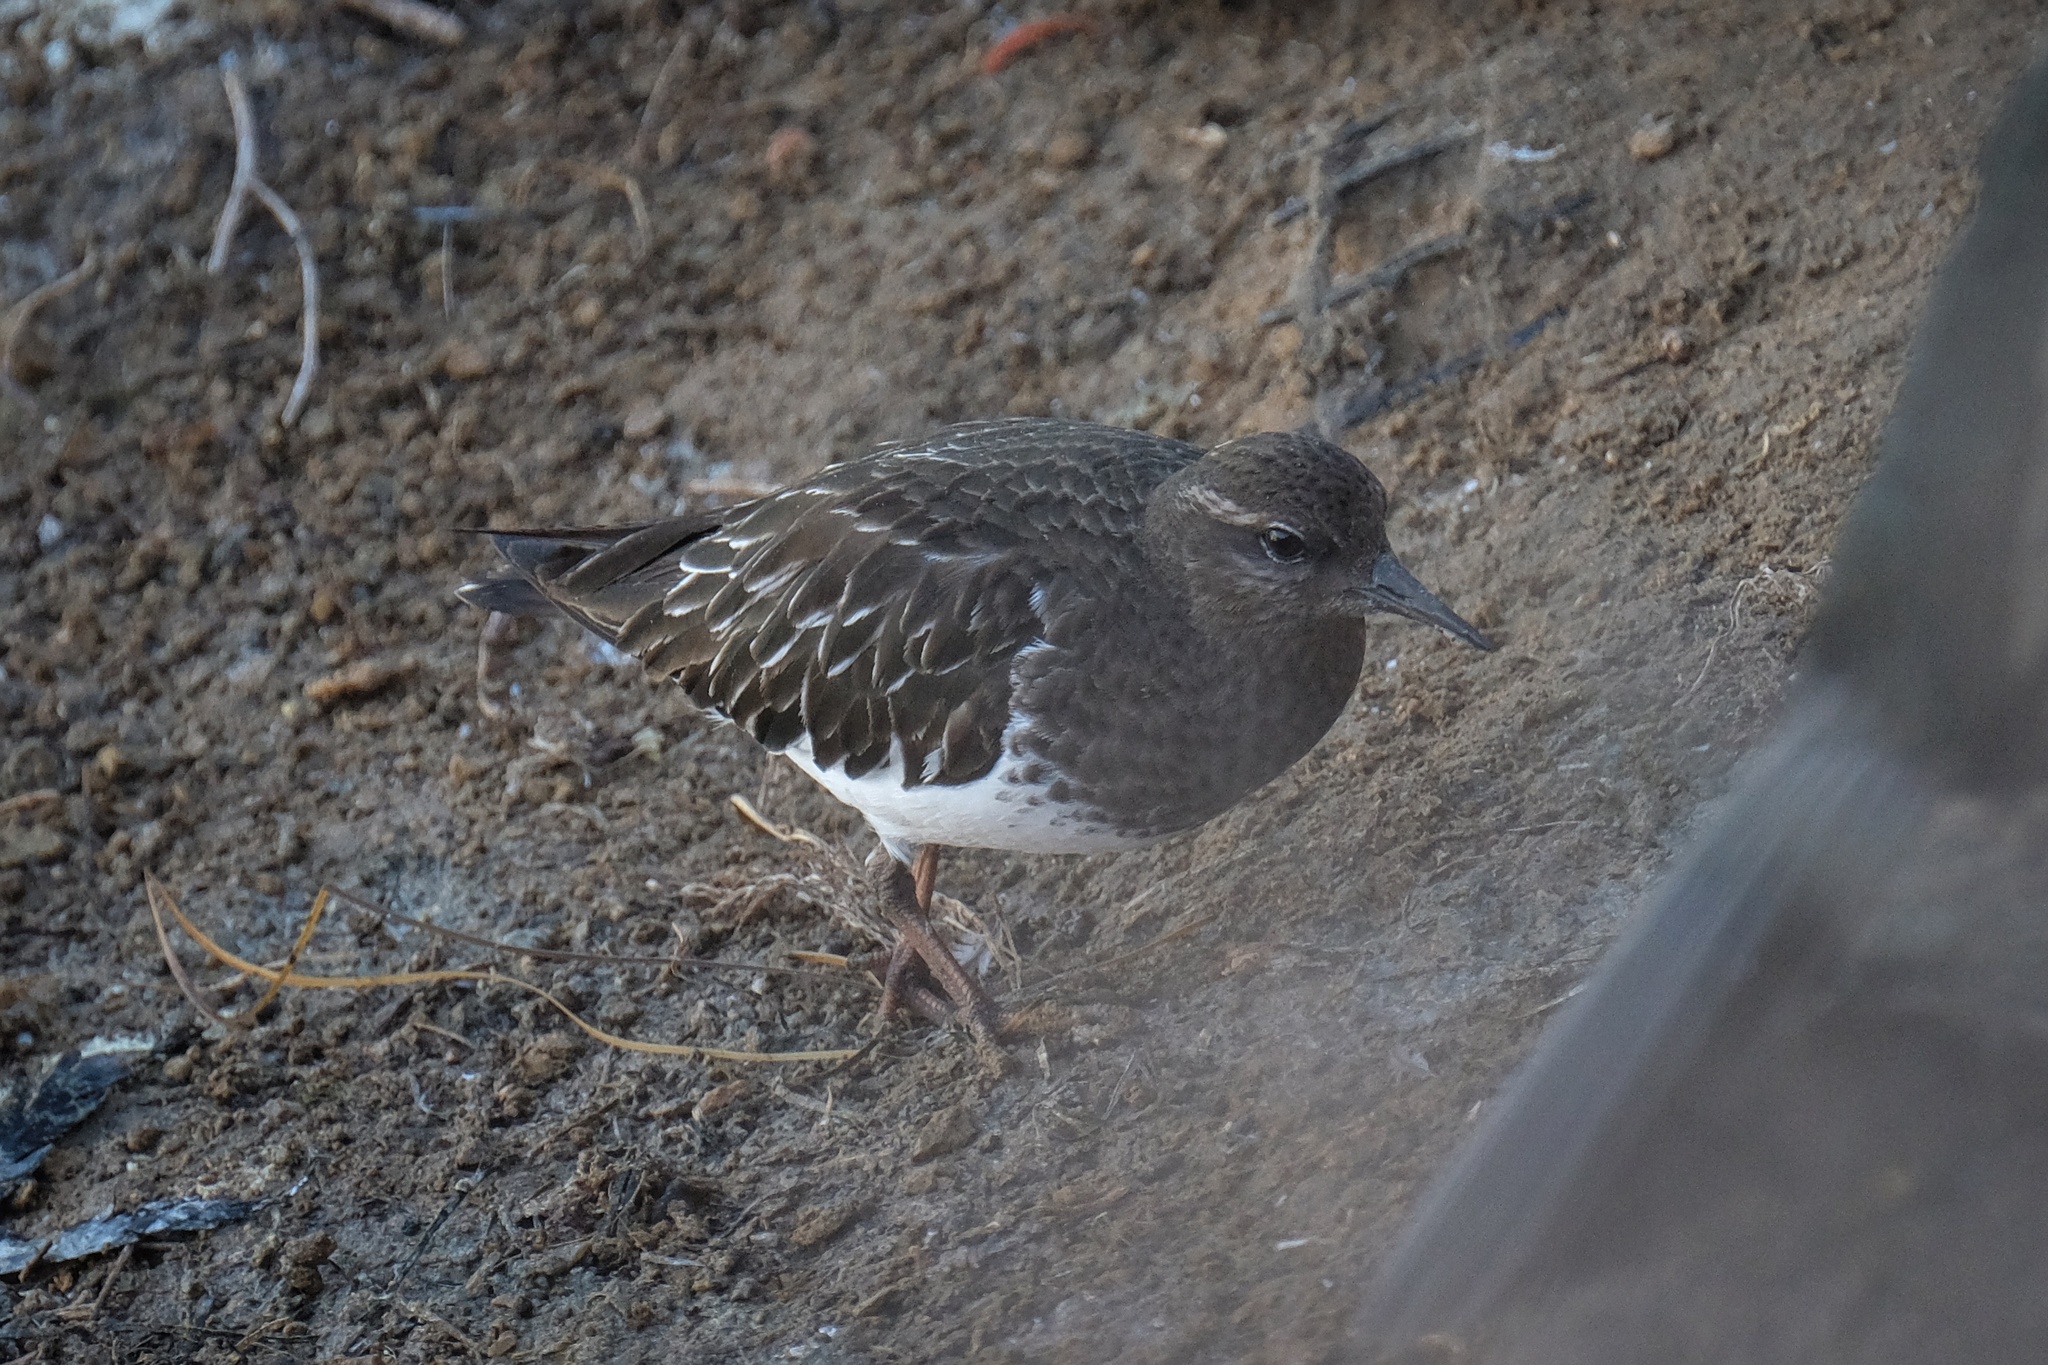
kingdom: Animalia
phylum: Chordata
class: Aves
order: Charadriiformes
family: Scolopacidae
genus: Arenaria
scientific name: Arenaria melanocephala
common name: Black turnstone
